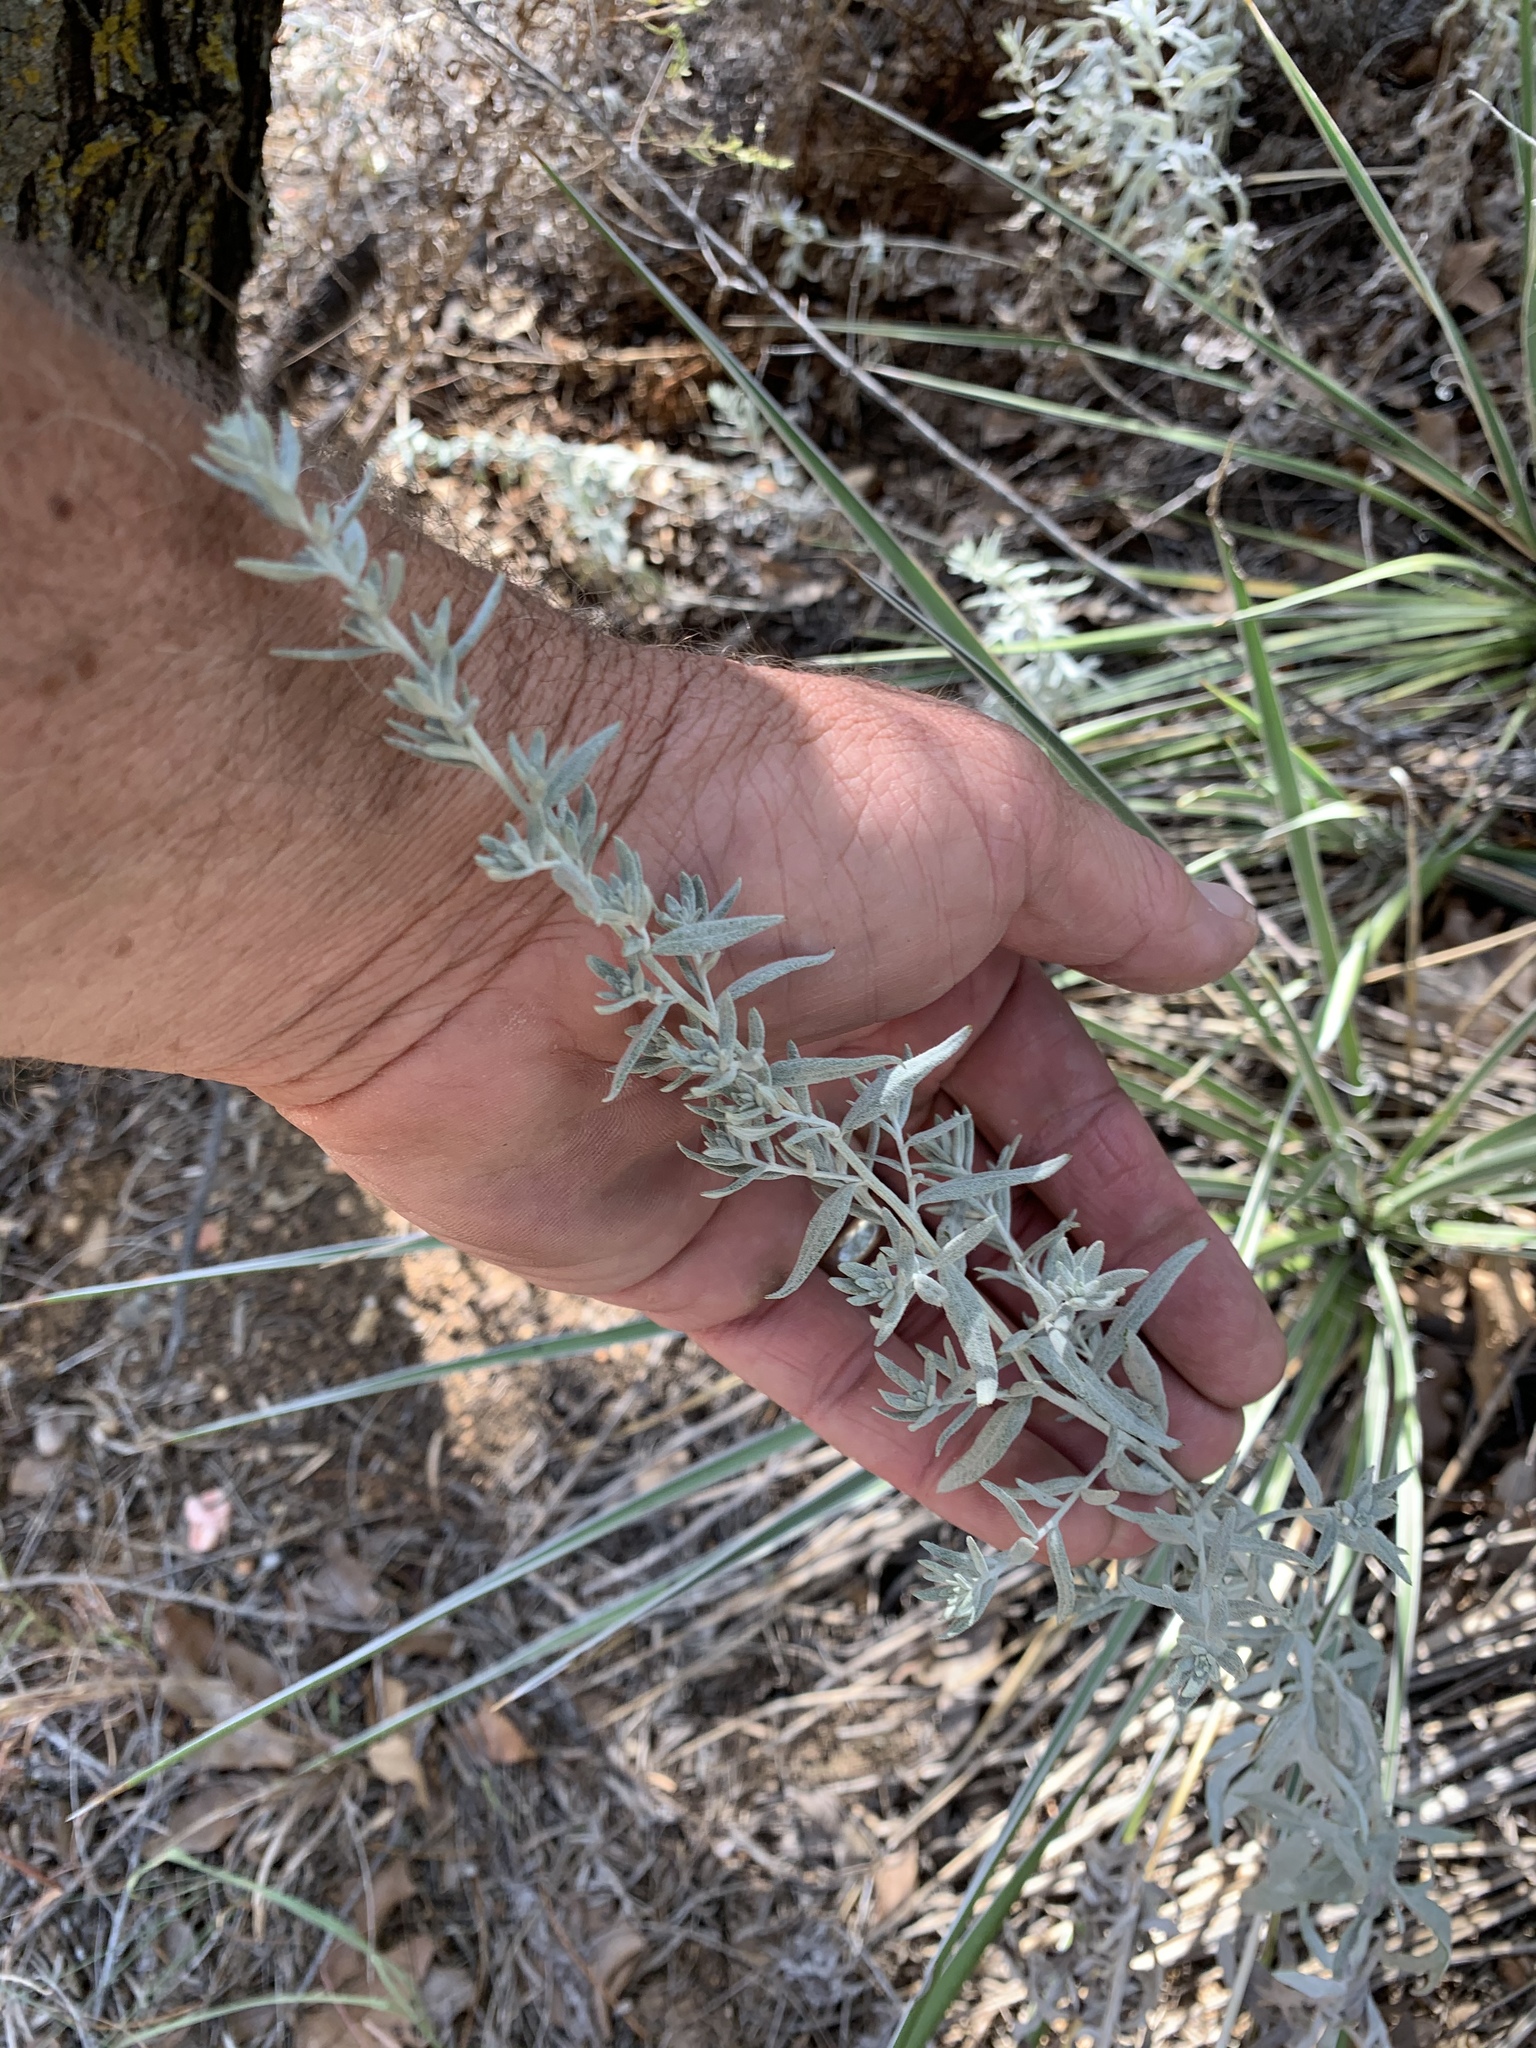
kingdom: Plantae
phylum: Tracheophyta
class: Magnoliopsida
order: Asterales
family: Asteraceae
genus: Artemisia
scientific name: Artemisia ludoviciana
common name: Western mugwort
